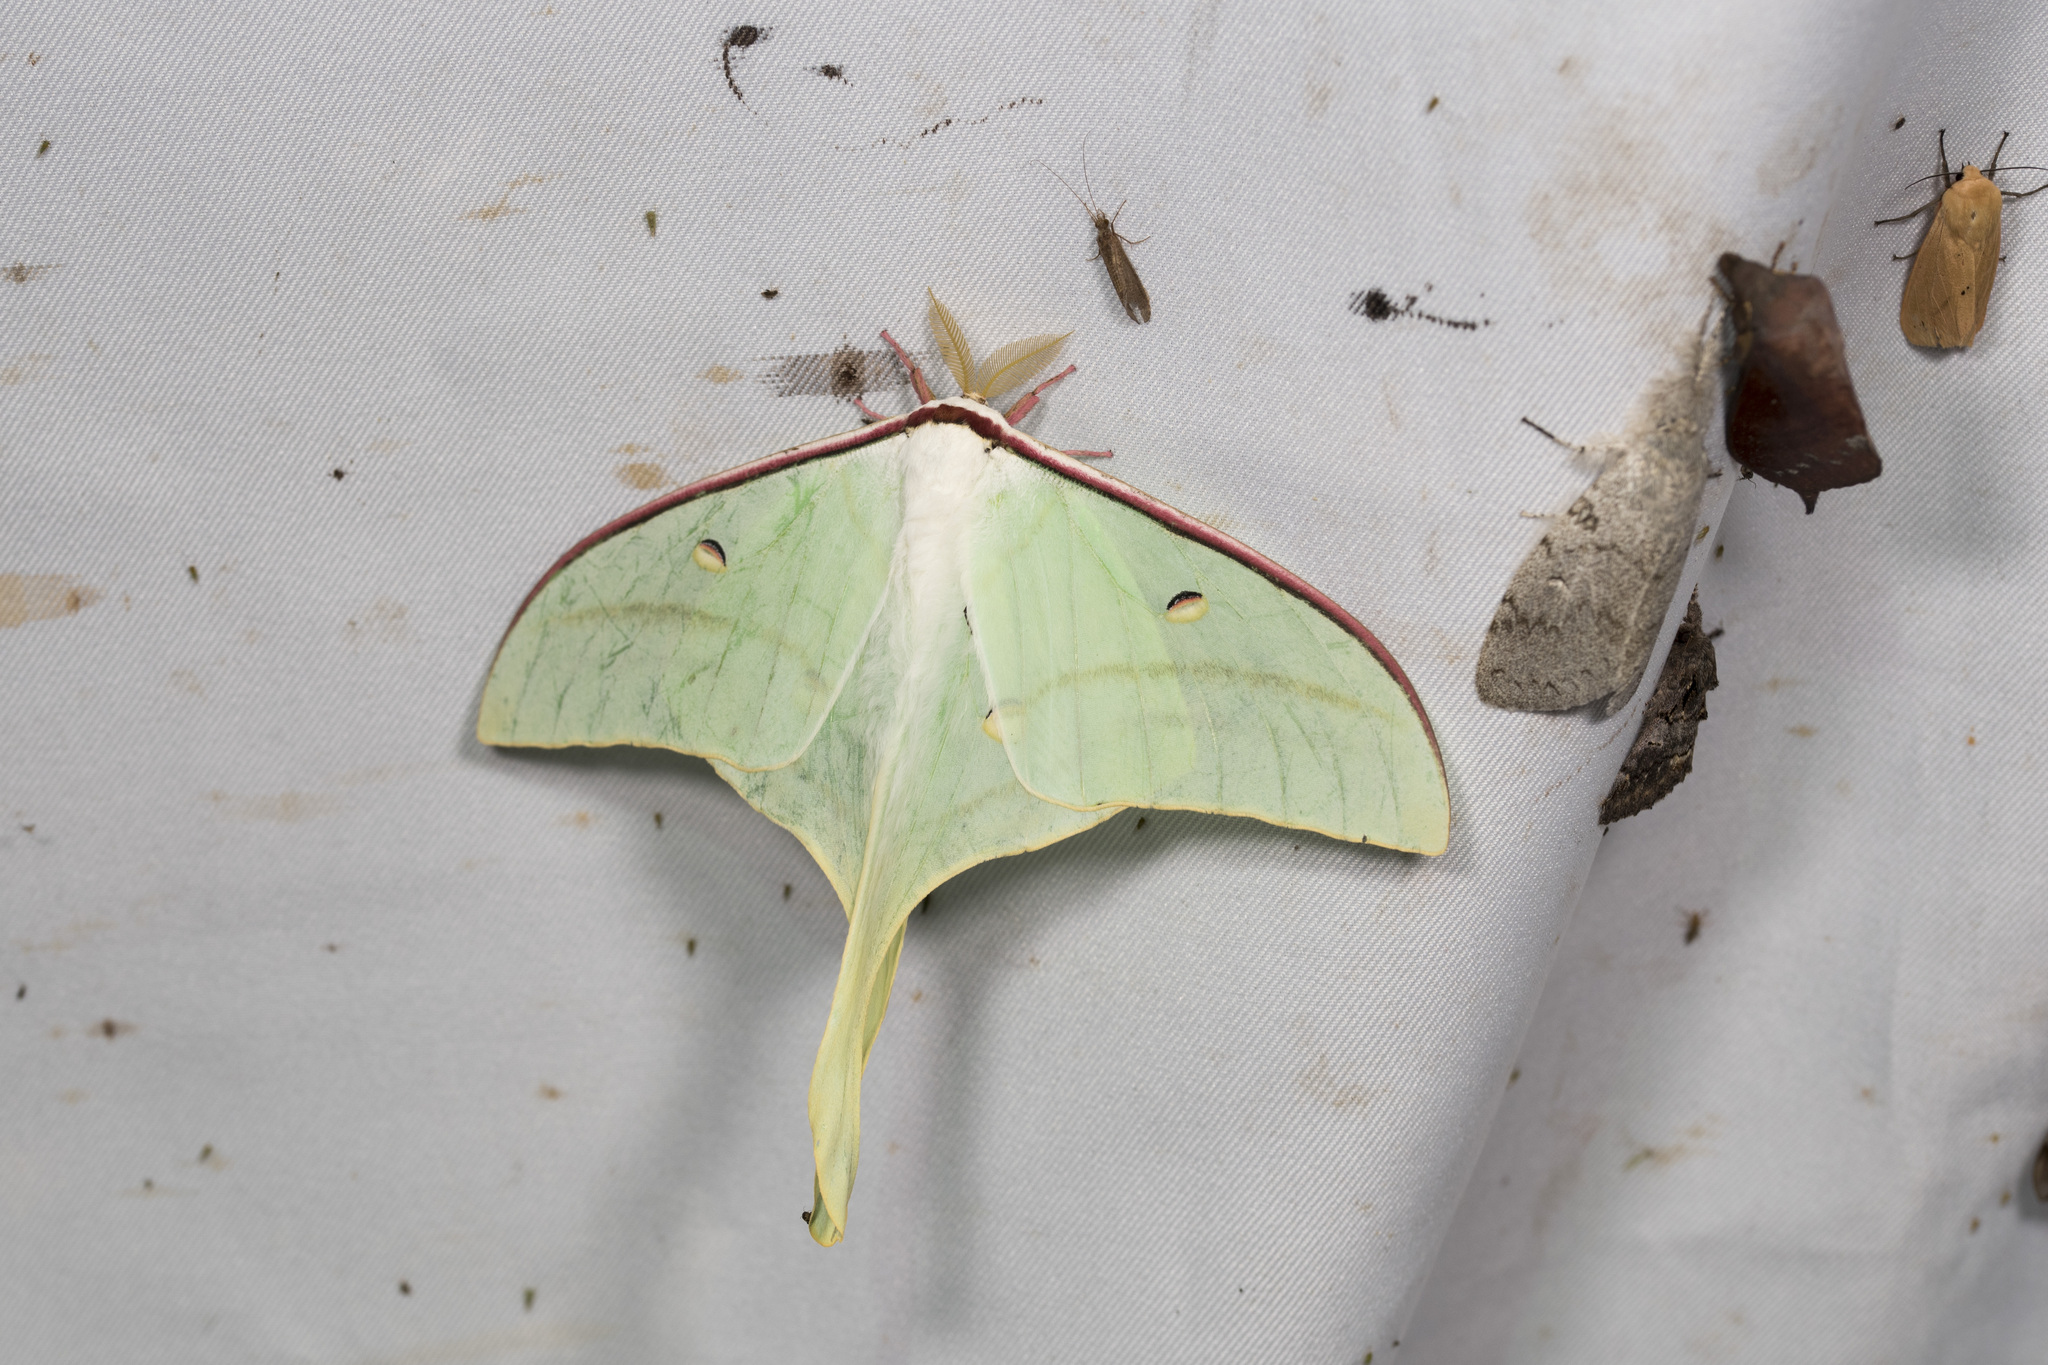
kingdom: Animalia
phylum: Arthropoda
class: Insecta
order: Lepidoptera
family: Saturniidae
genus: Actias
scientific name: Actias ningpoana
